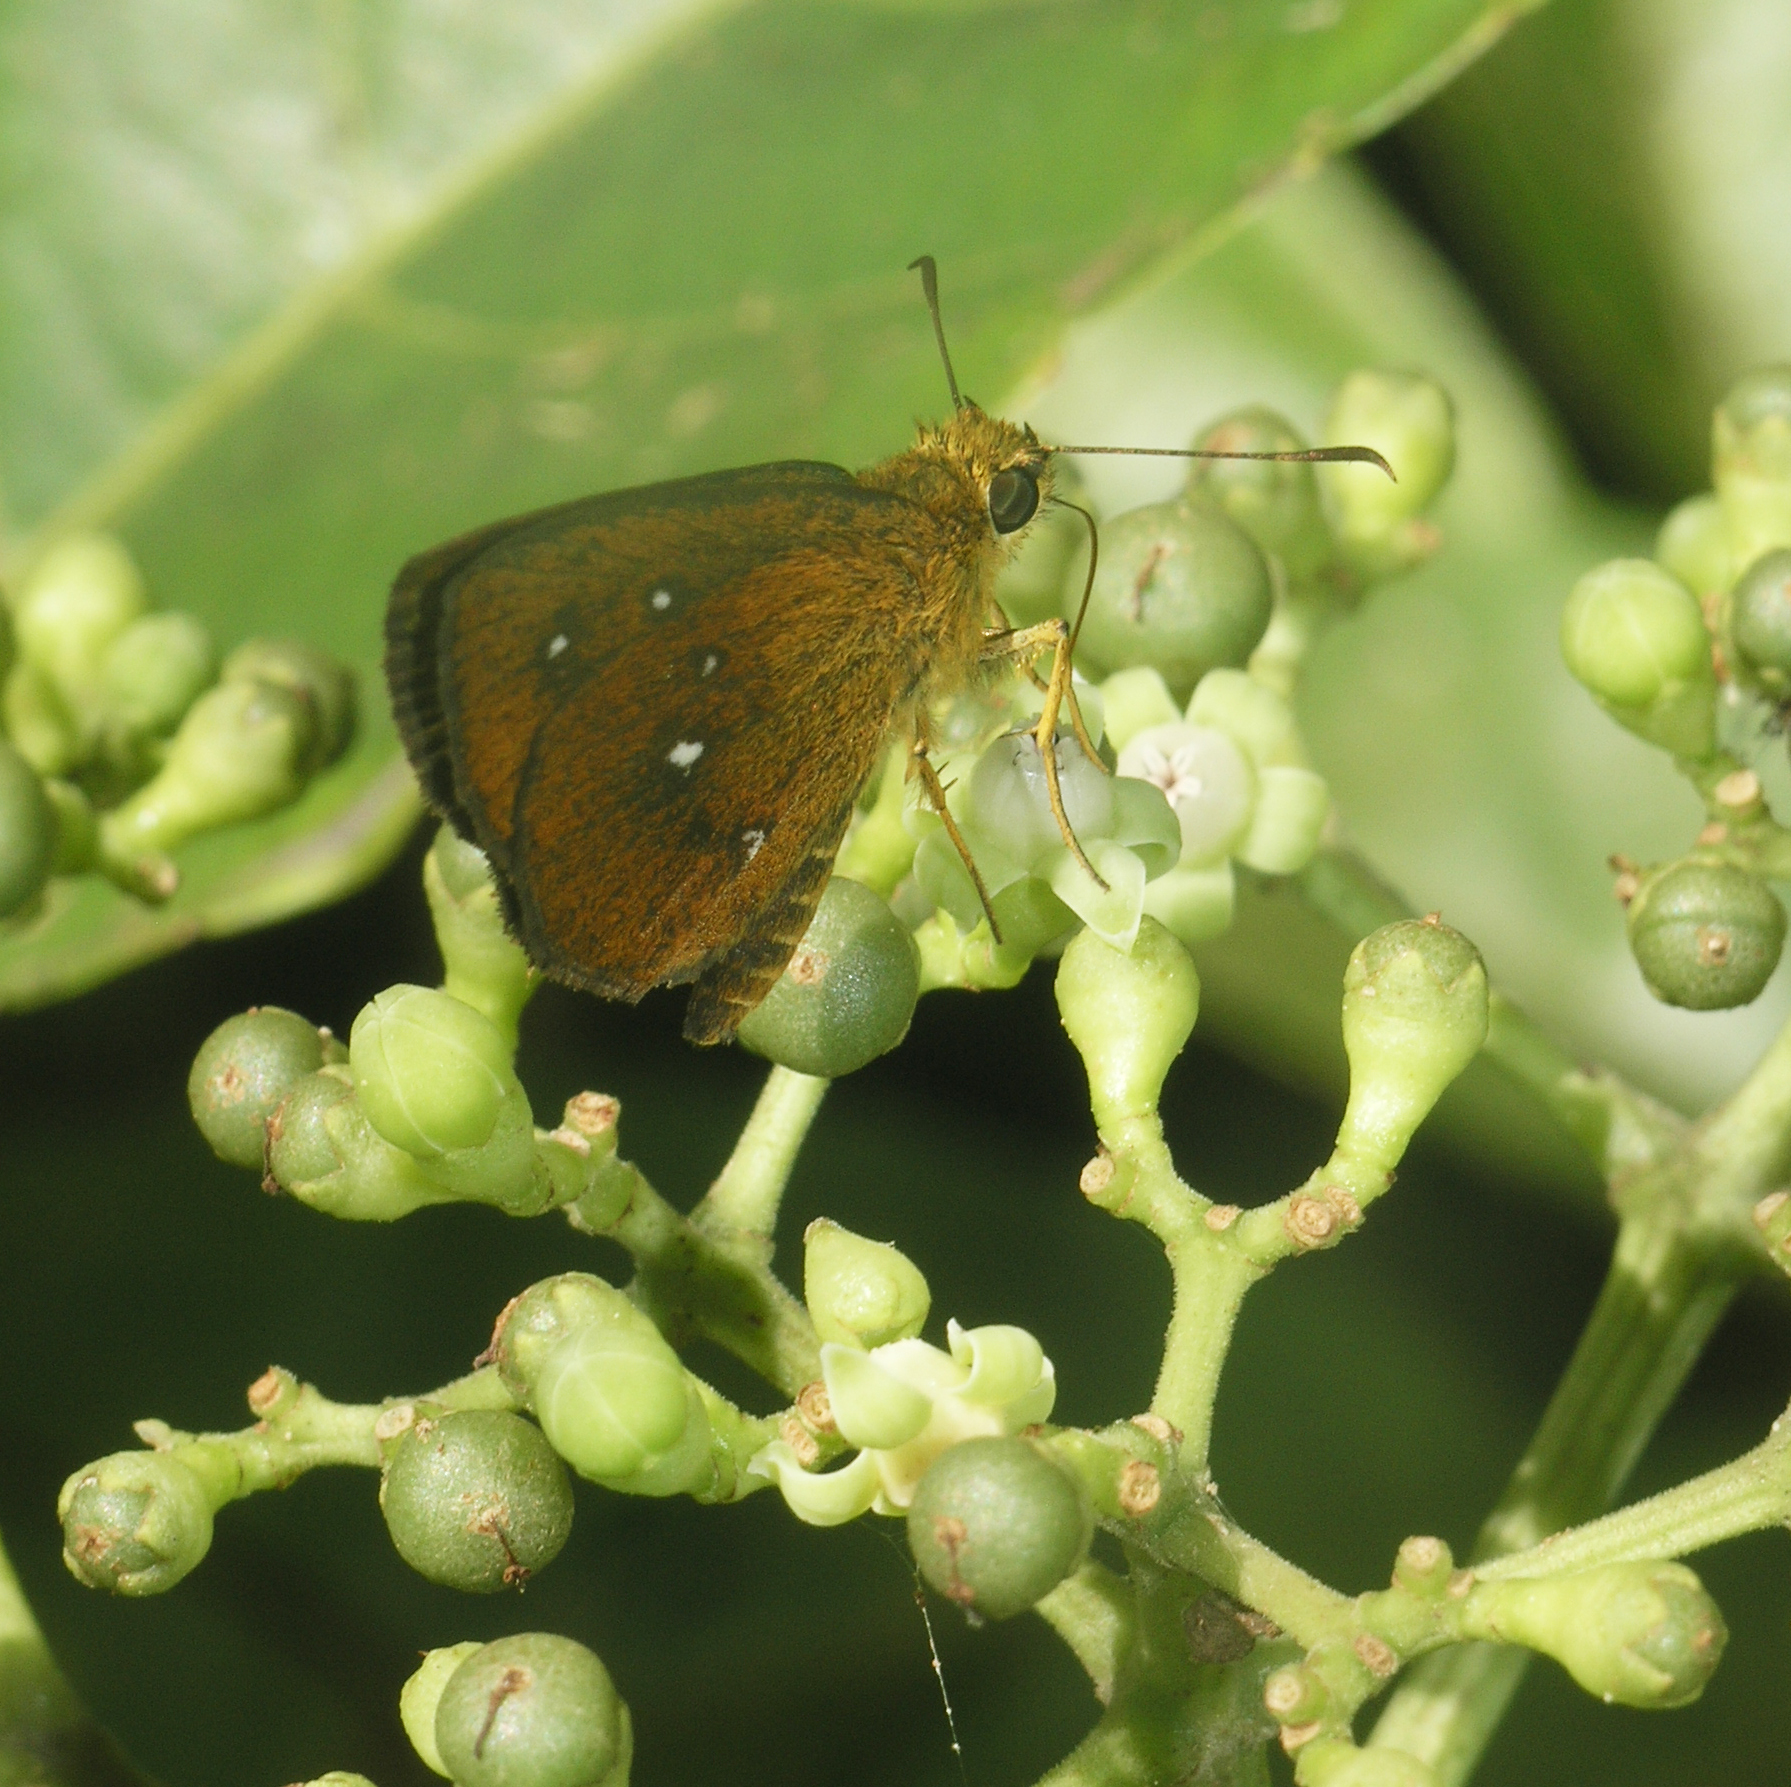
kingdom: Animalia
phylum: Arthropoda
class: Insecta
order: Lepidoptera
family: Hesperiidae
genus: Iambrix
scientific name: Iambrix salsala
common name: Chestnut bob
